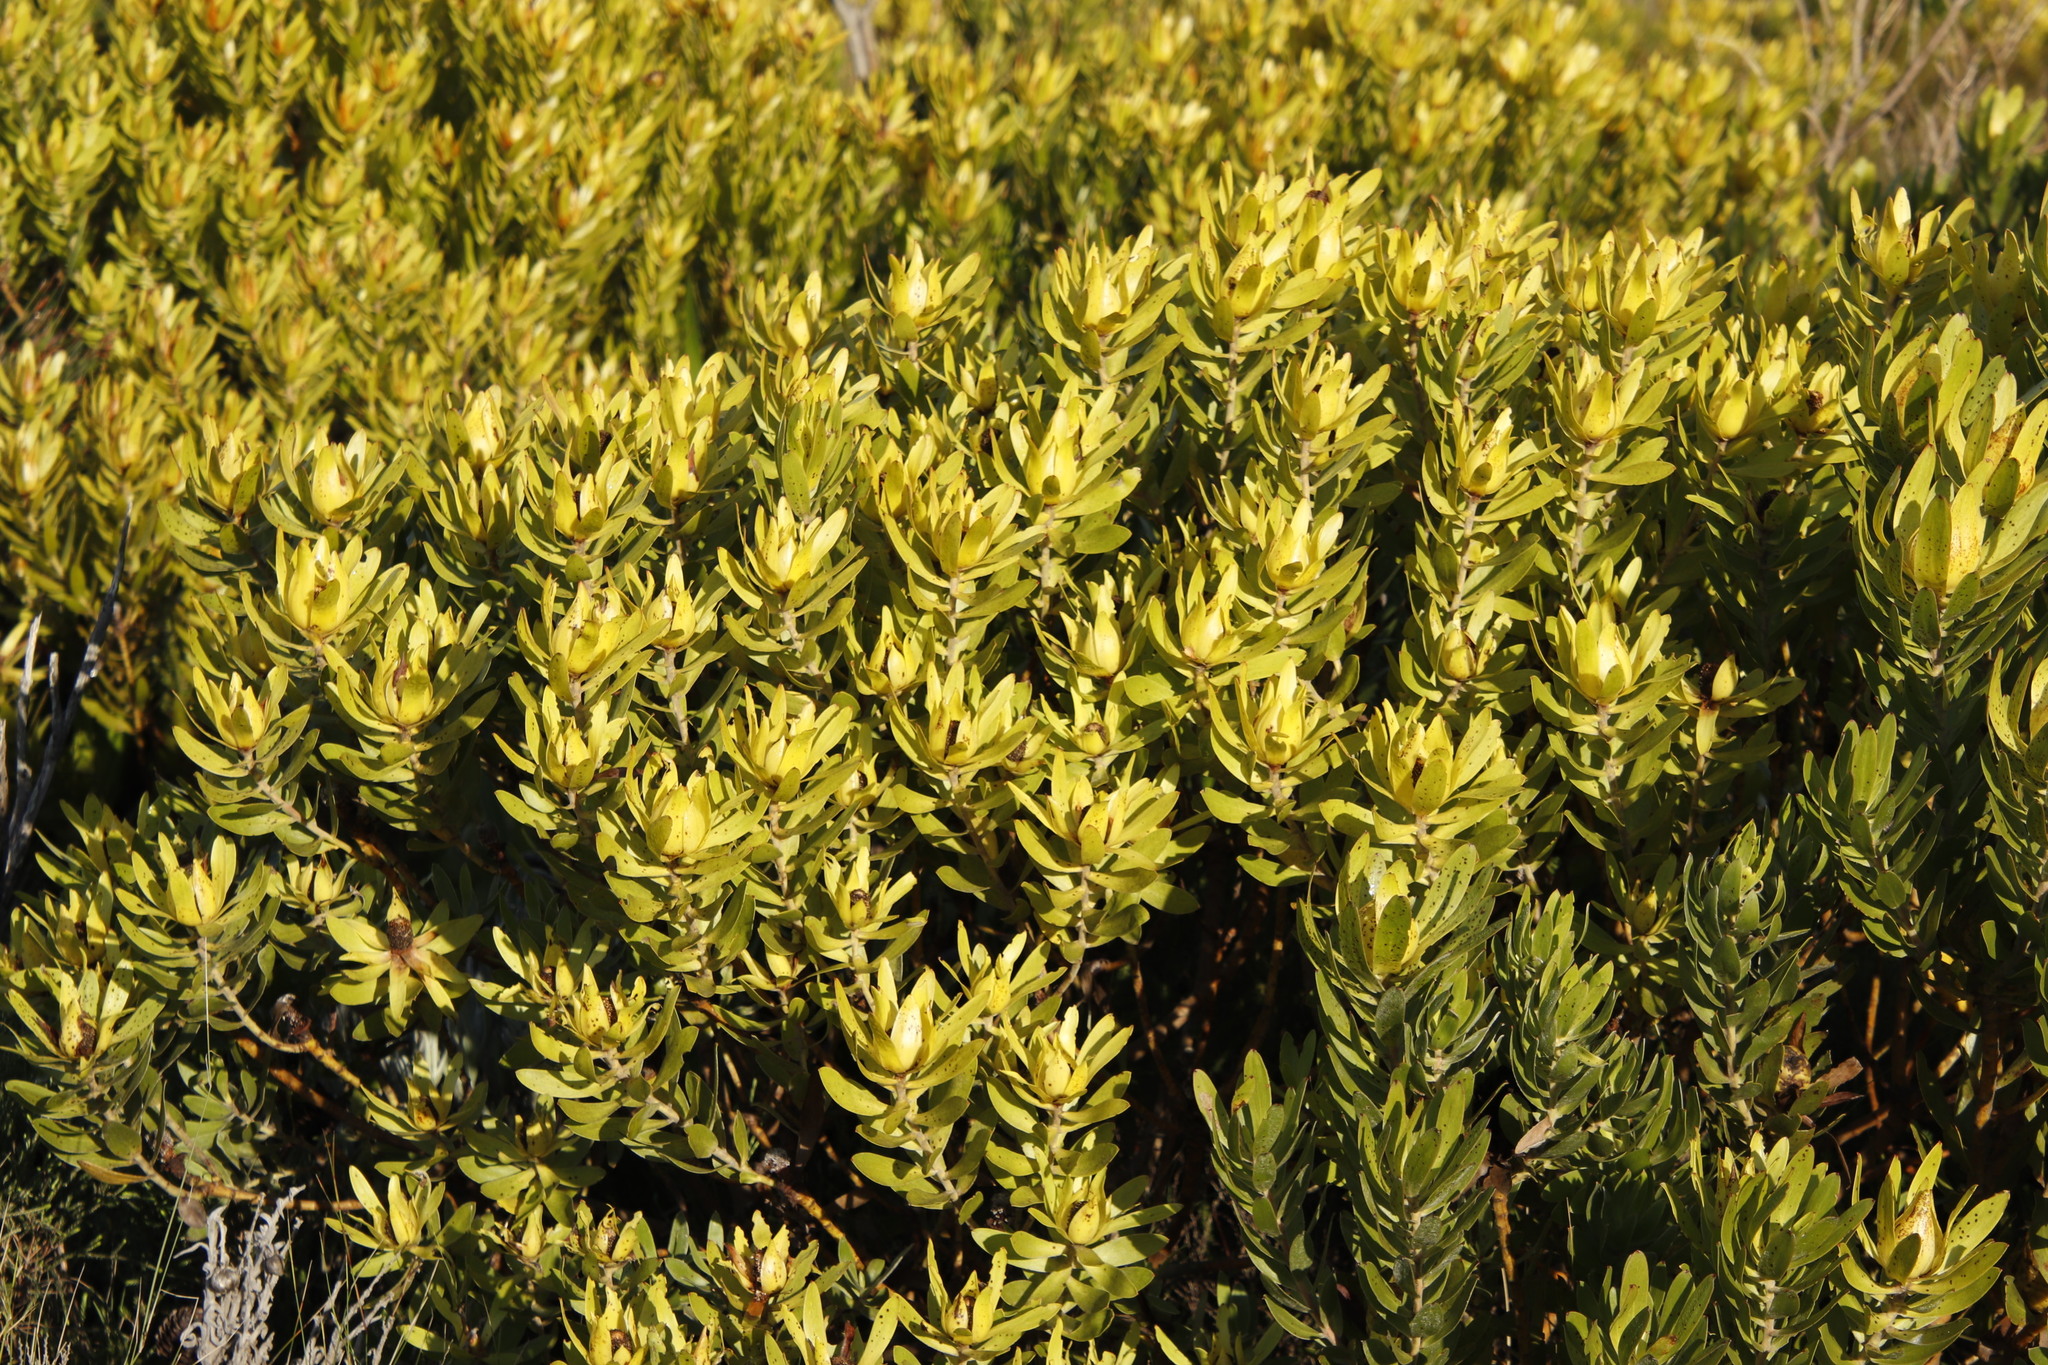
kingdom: Plantae
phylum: Tracheophyta
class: Magnoliopsida
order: Proteales
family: Proteaceae
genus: Leucadendron
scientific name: Leucadendron laureolum
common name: Golden sunshinebush
